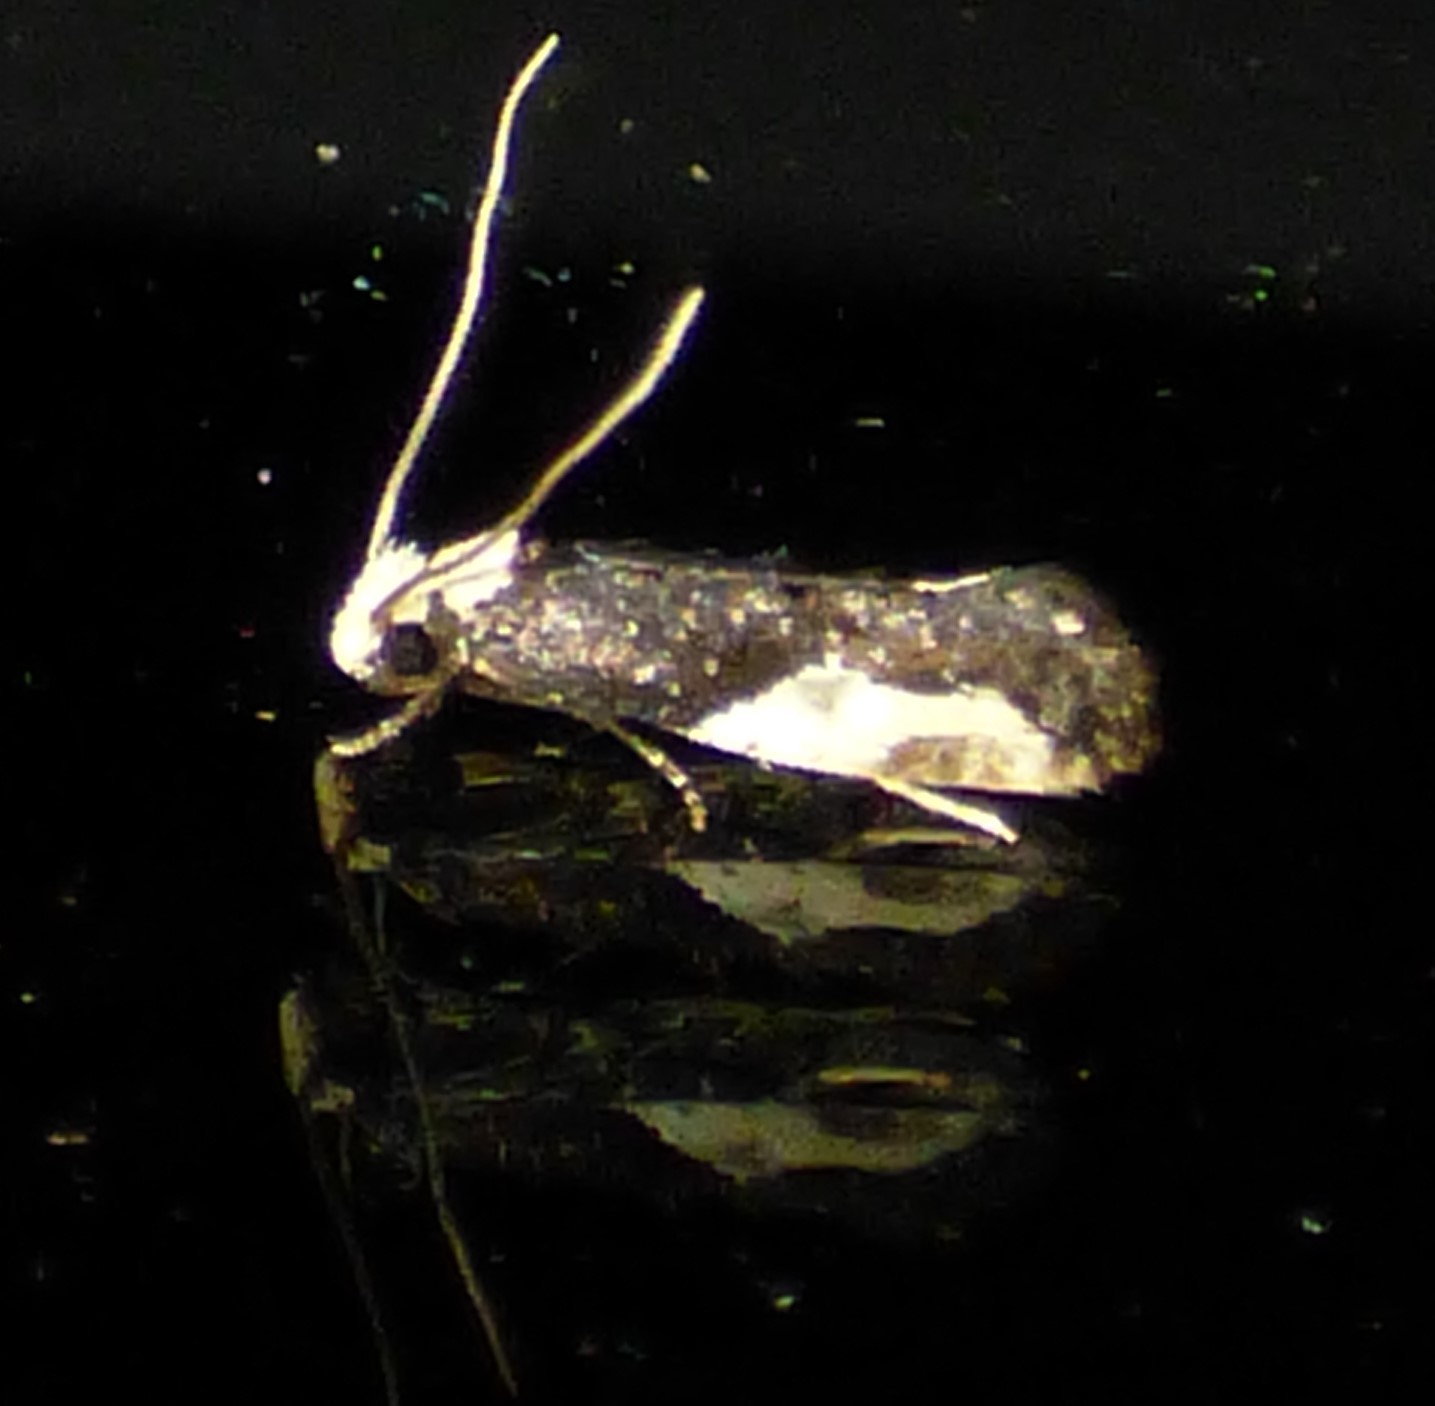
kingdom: Animalia
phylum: Arthropoda
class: Insecta
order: Lepidoptera
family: Tineidae
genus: Monopis
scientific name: Monopis longella
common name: Pavlovski's monopis moth
